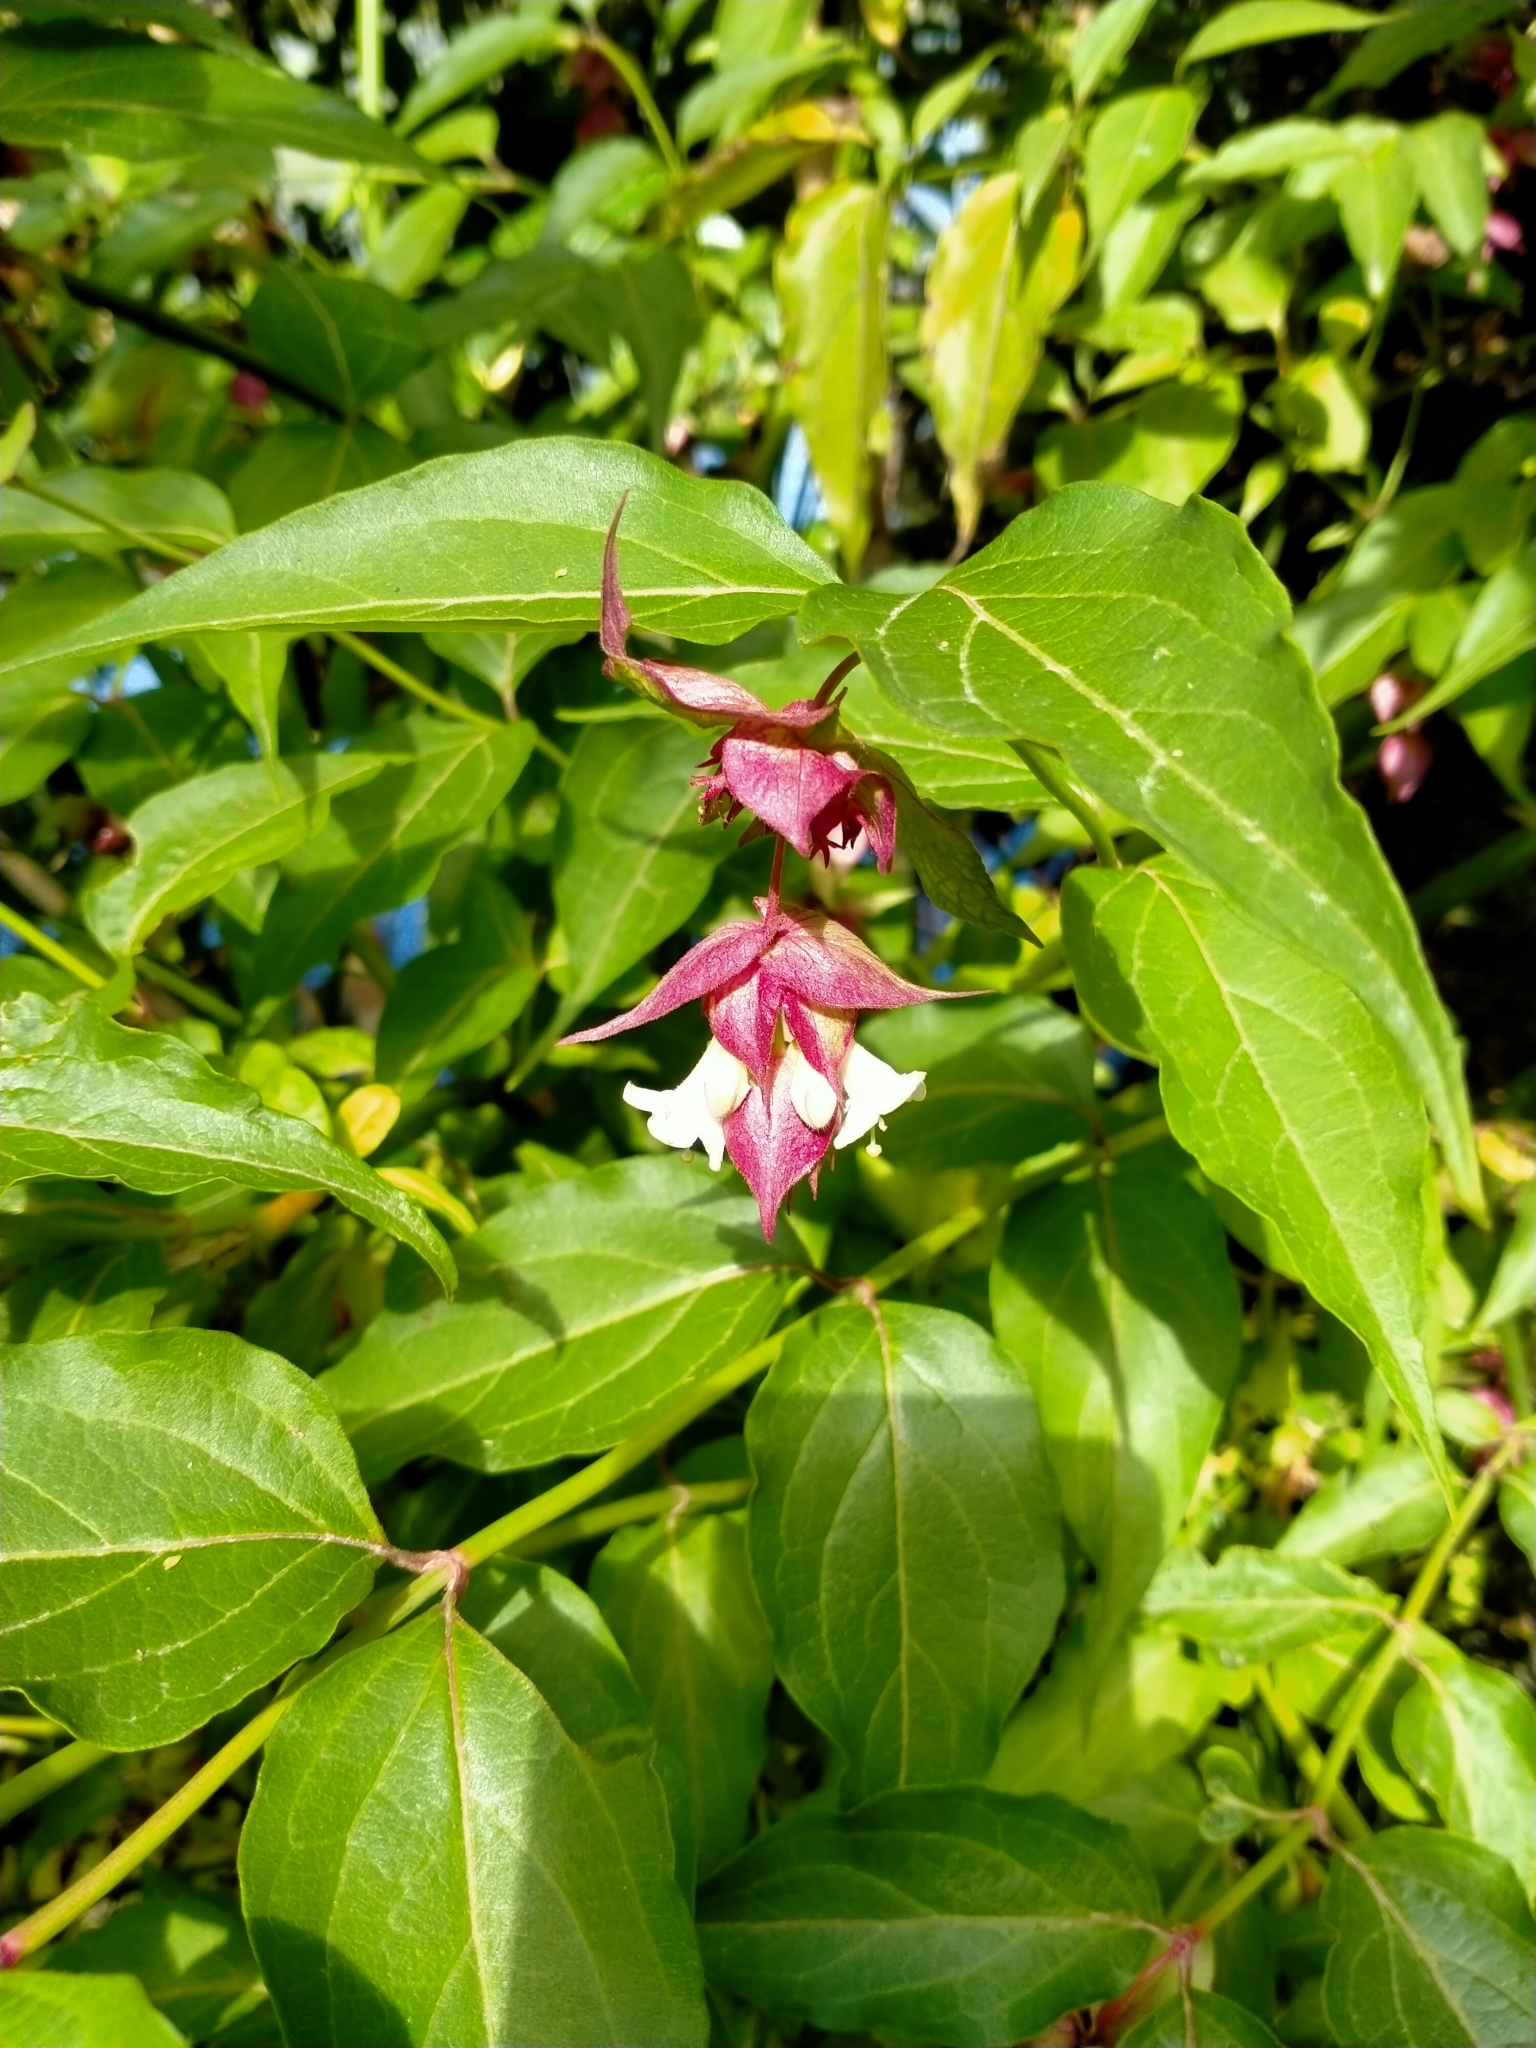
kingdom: Plantae
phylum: Tracheophyta
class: Magnoliopsida
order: Dipsacales
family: Caprifoliaceae
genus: Leycesteria
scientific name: Leycesteria formosa
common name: Himalayan honeysuckle
